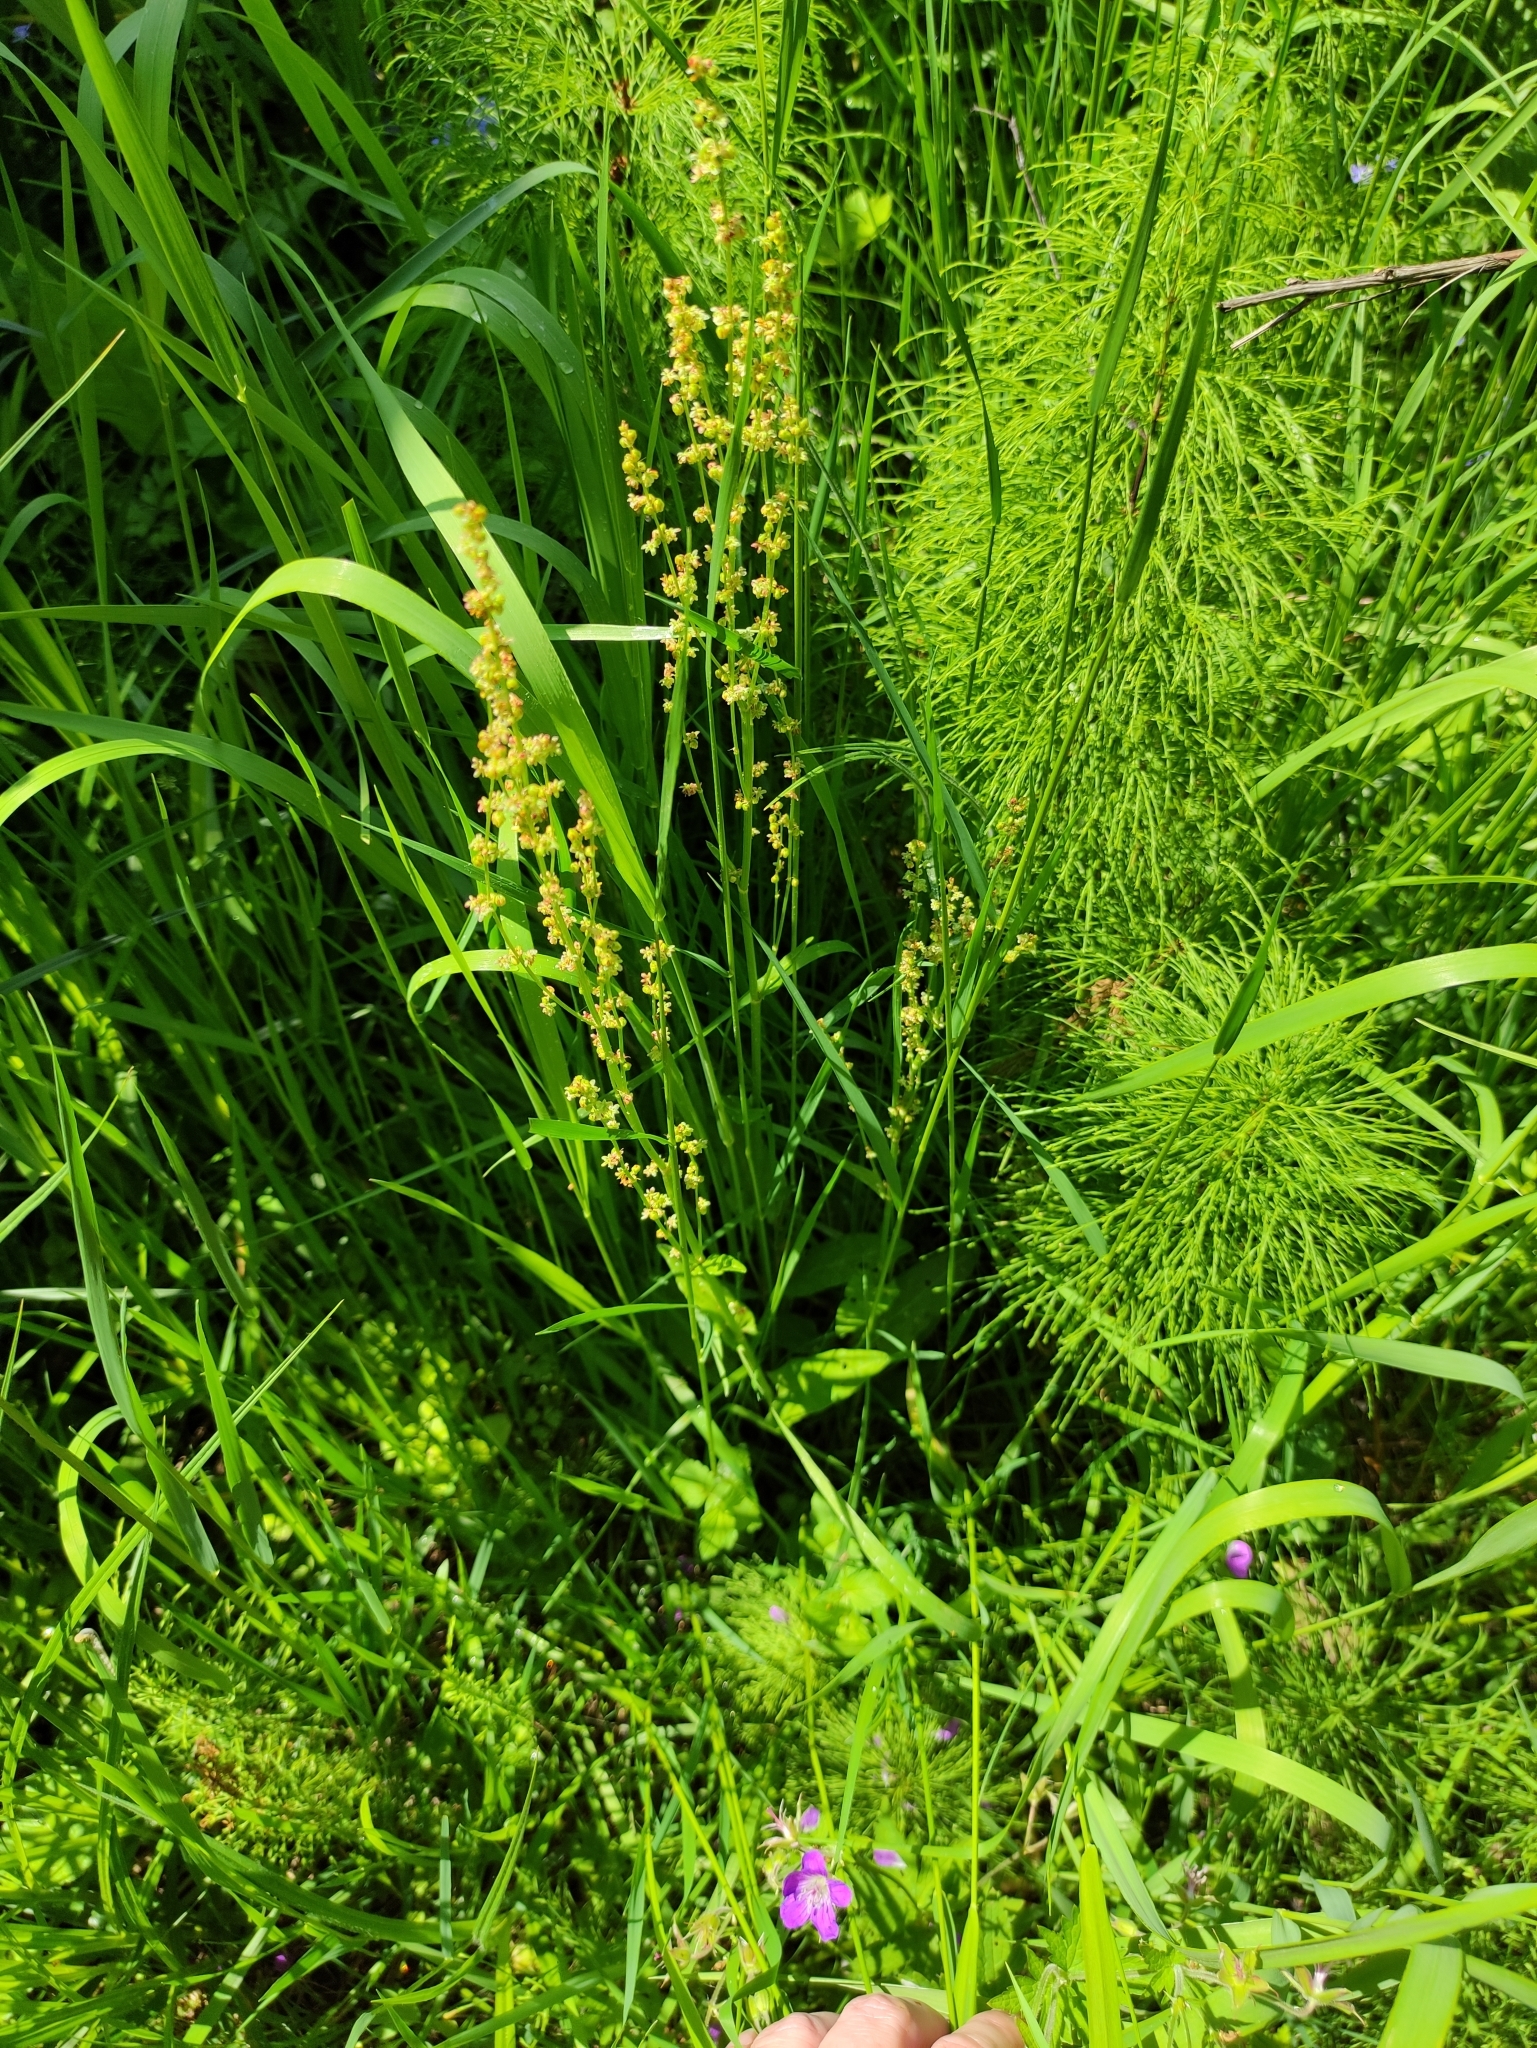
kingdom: Plantae
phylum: Tracheophyta
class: Magnoliopsida
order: Caryophyllales
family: Polygonaceae
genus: Rumex
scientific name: Rumex acetosa
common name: Garden sorrel
